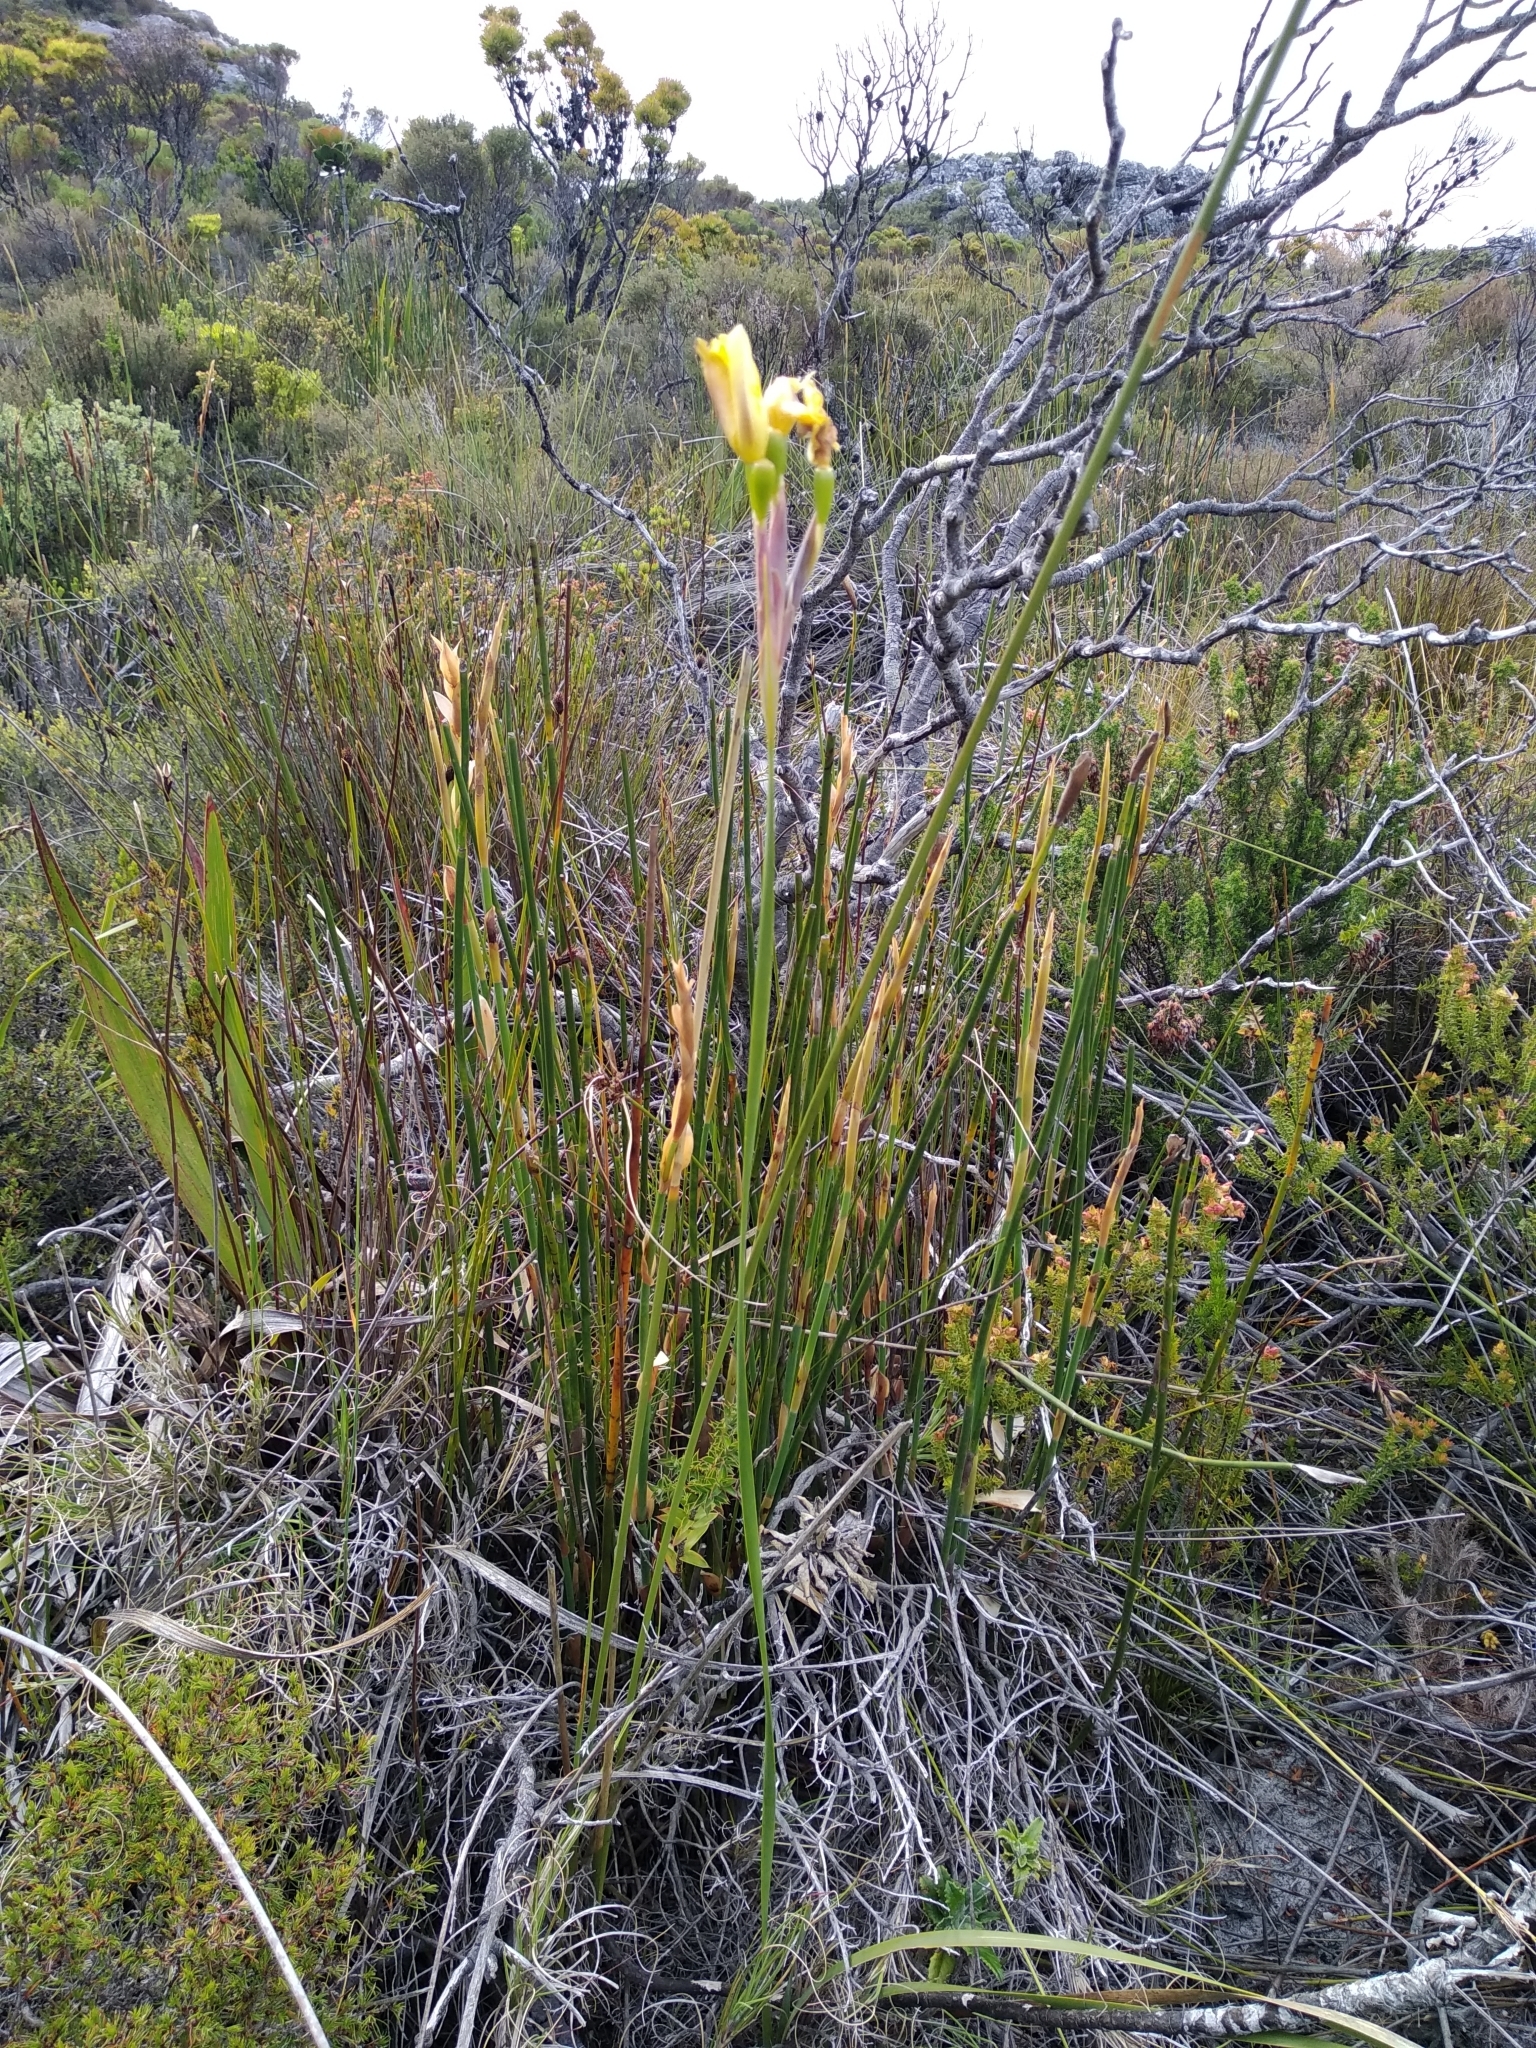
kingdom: Plantae
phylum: Tracheophyta
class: Liliopsida
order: Asparagales
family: Iridaceae
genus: Bobartia
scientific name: Bobartia gladiata
